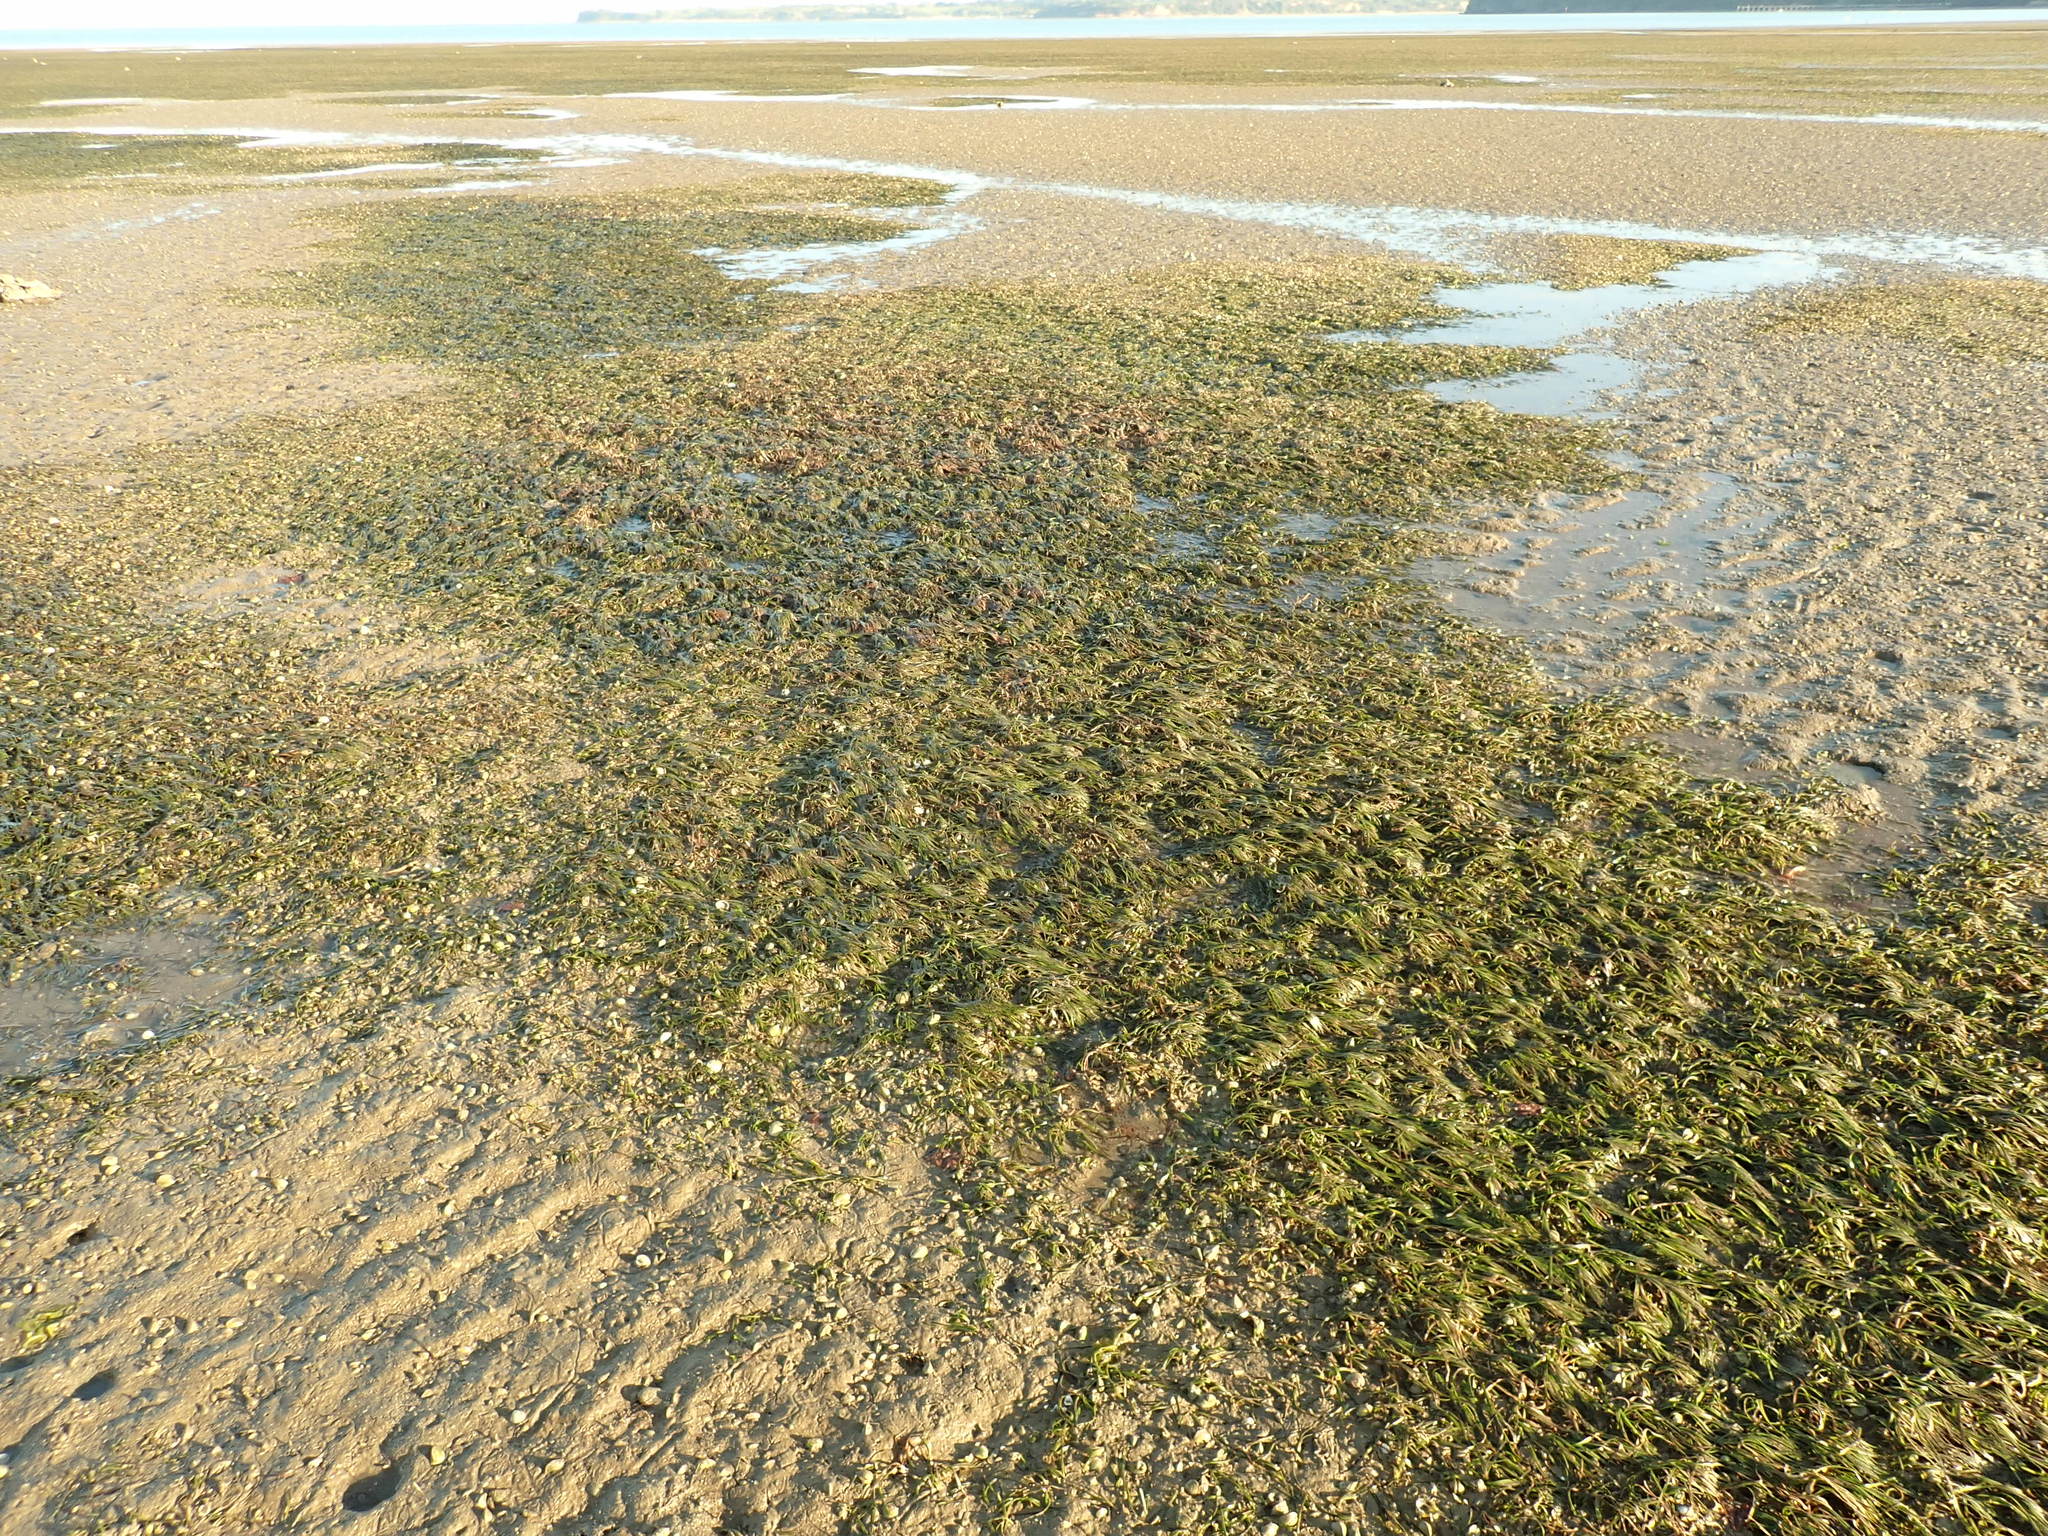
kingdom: Plantae
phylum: Tracheophyta
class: Liliopsida
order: Alismatales
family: Zosteraceae
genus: Zostera
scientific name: Zostera novazelandica
